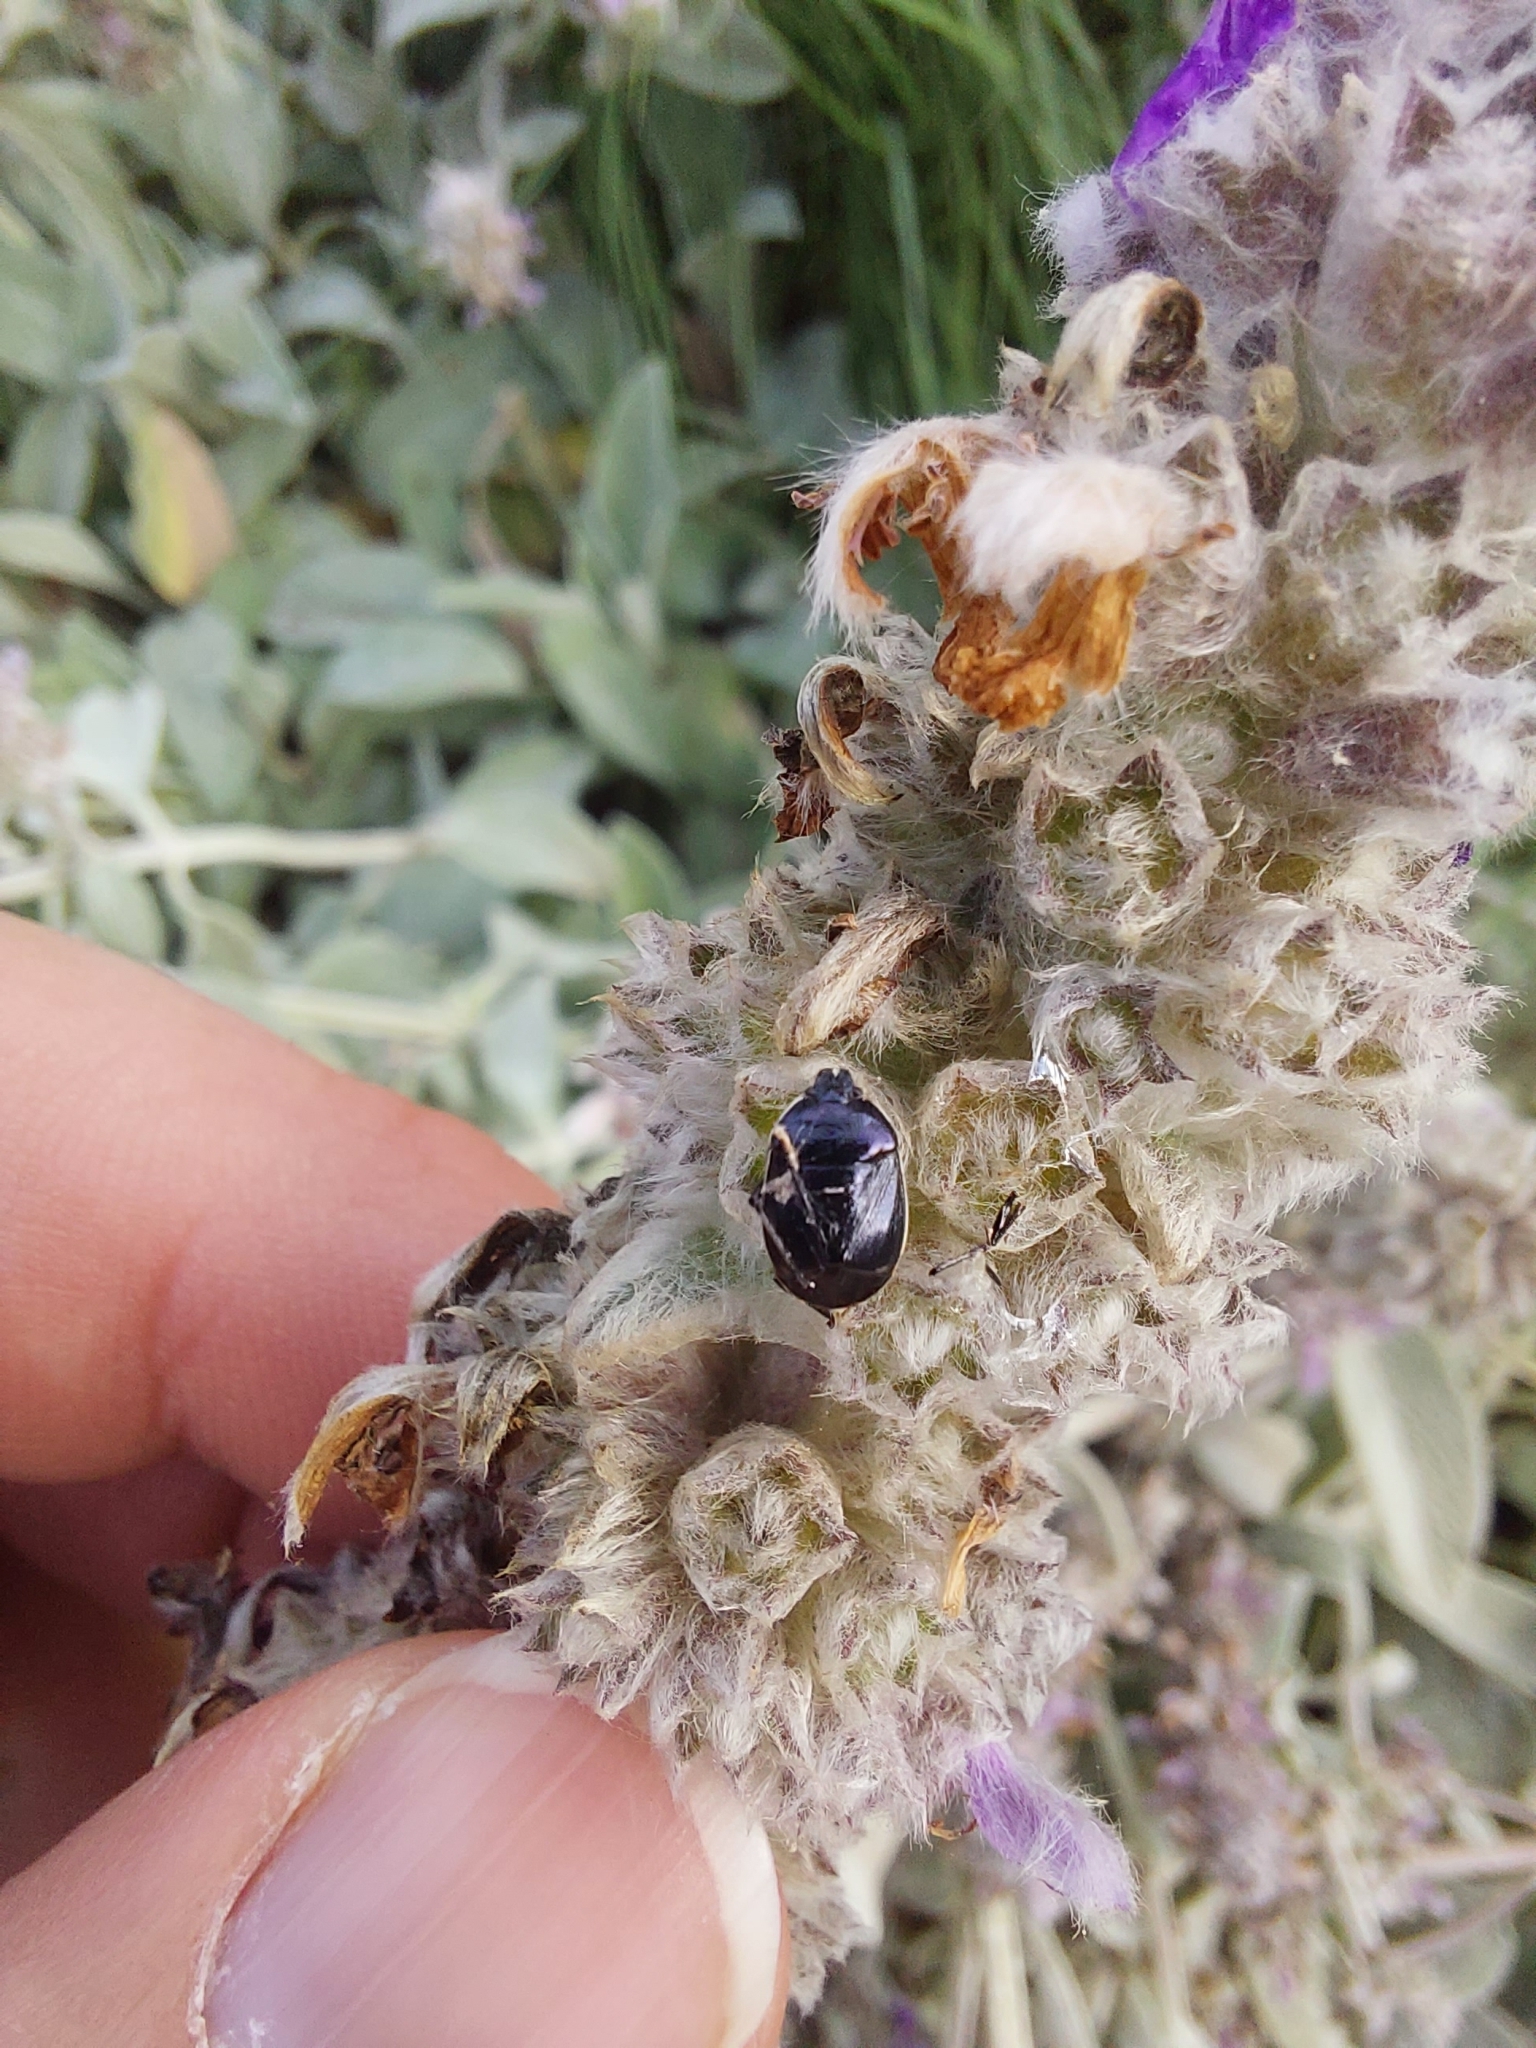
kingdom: Animalia
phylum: Arthropoda
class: Insecta
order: Hemiptera
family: Cydnidae
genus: Sehirus
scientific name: Sehirus cinctus
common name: White-margined burrower bug
